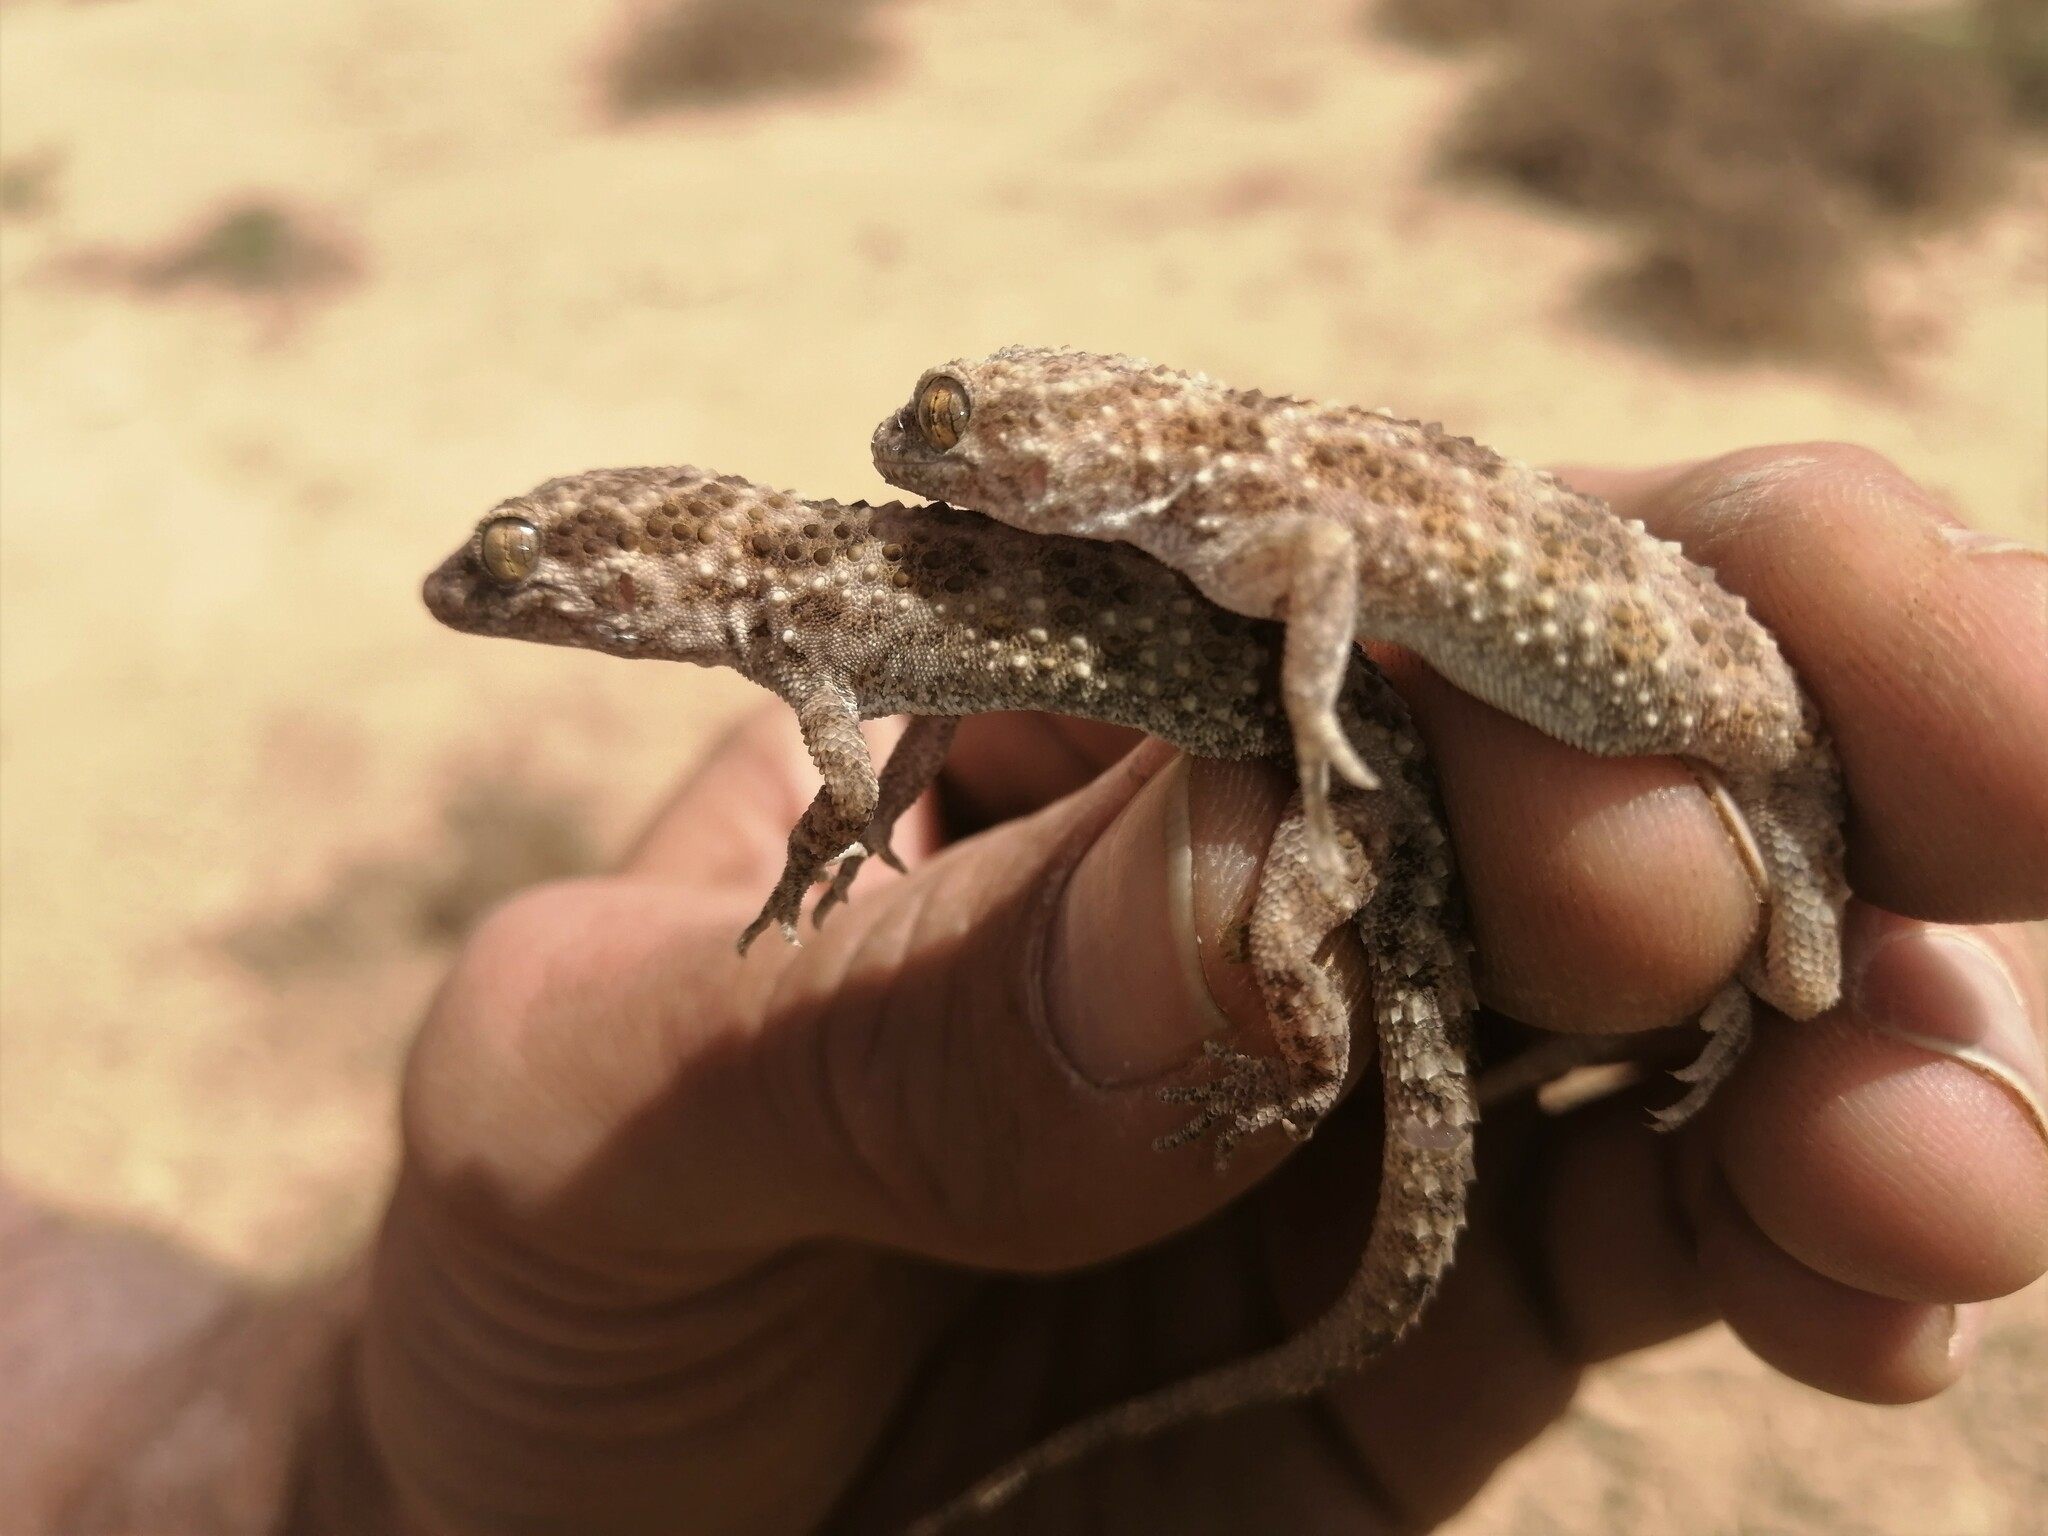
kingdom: Animalia
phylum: Chordata
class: Squamata
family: Gekkonidae
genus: Bunopus
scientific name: Bunopus tuberculatus
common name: Southern tuberculated gecko
